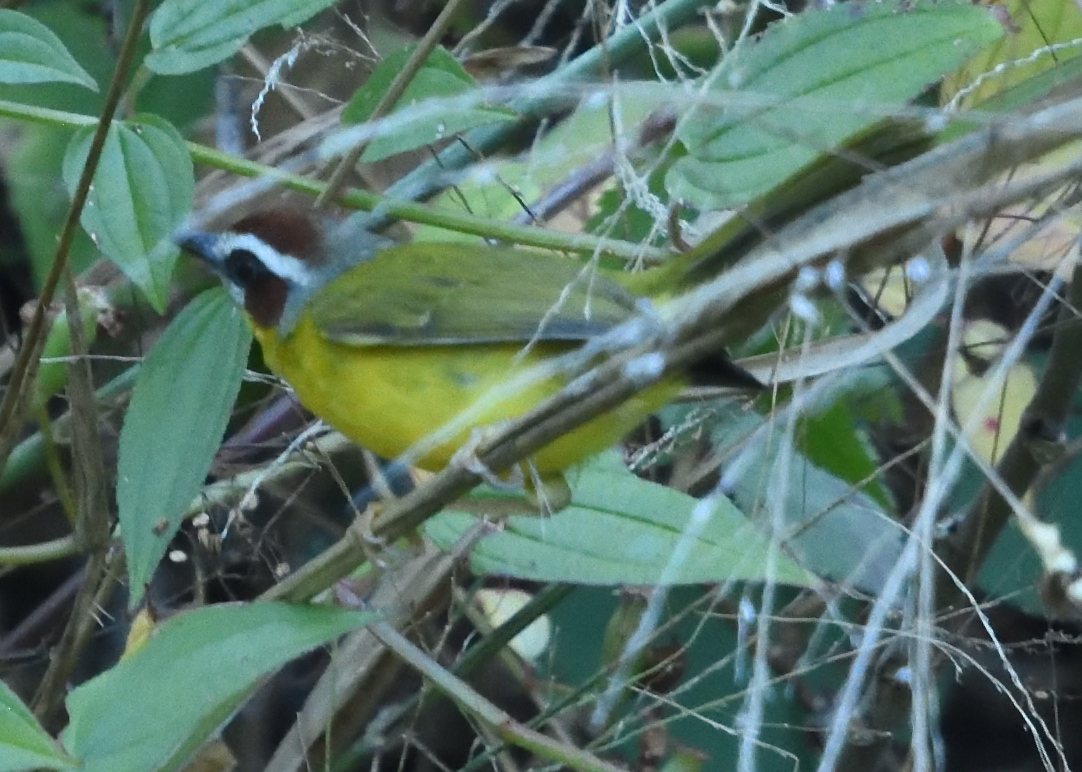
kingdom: Animalia
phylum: Chordata
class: Aves
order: Passeriformes
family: Parulidae
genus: Basileuterus
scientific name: Basileuterus rufifrons
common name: Rufous-capped warbler
